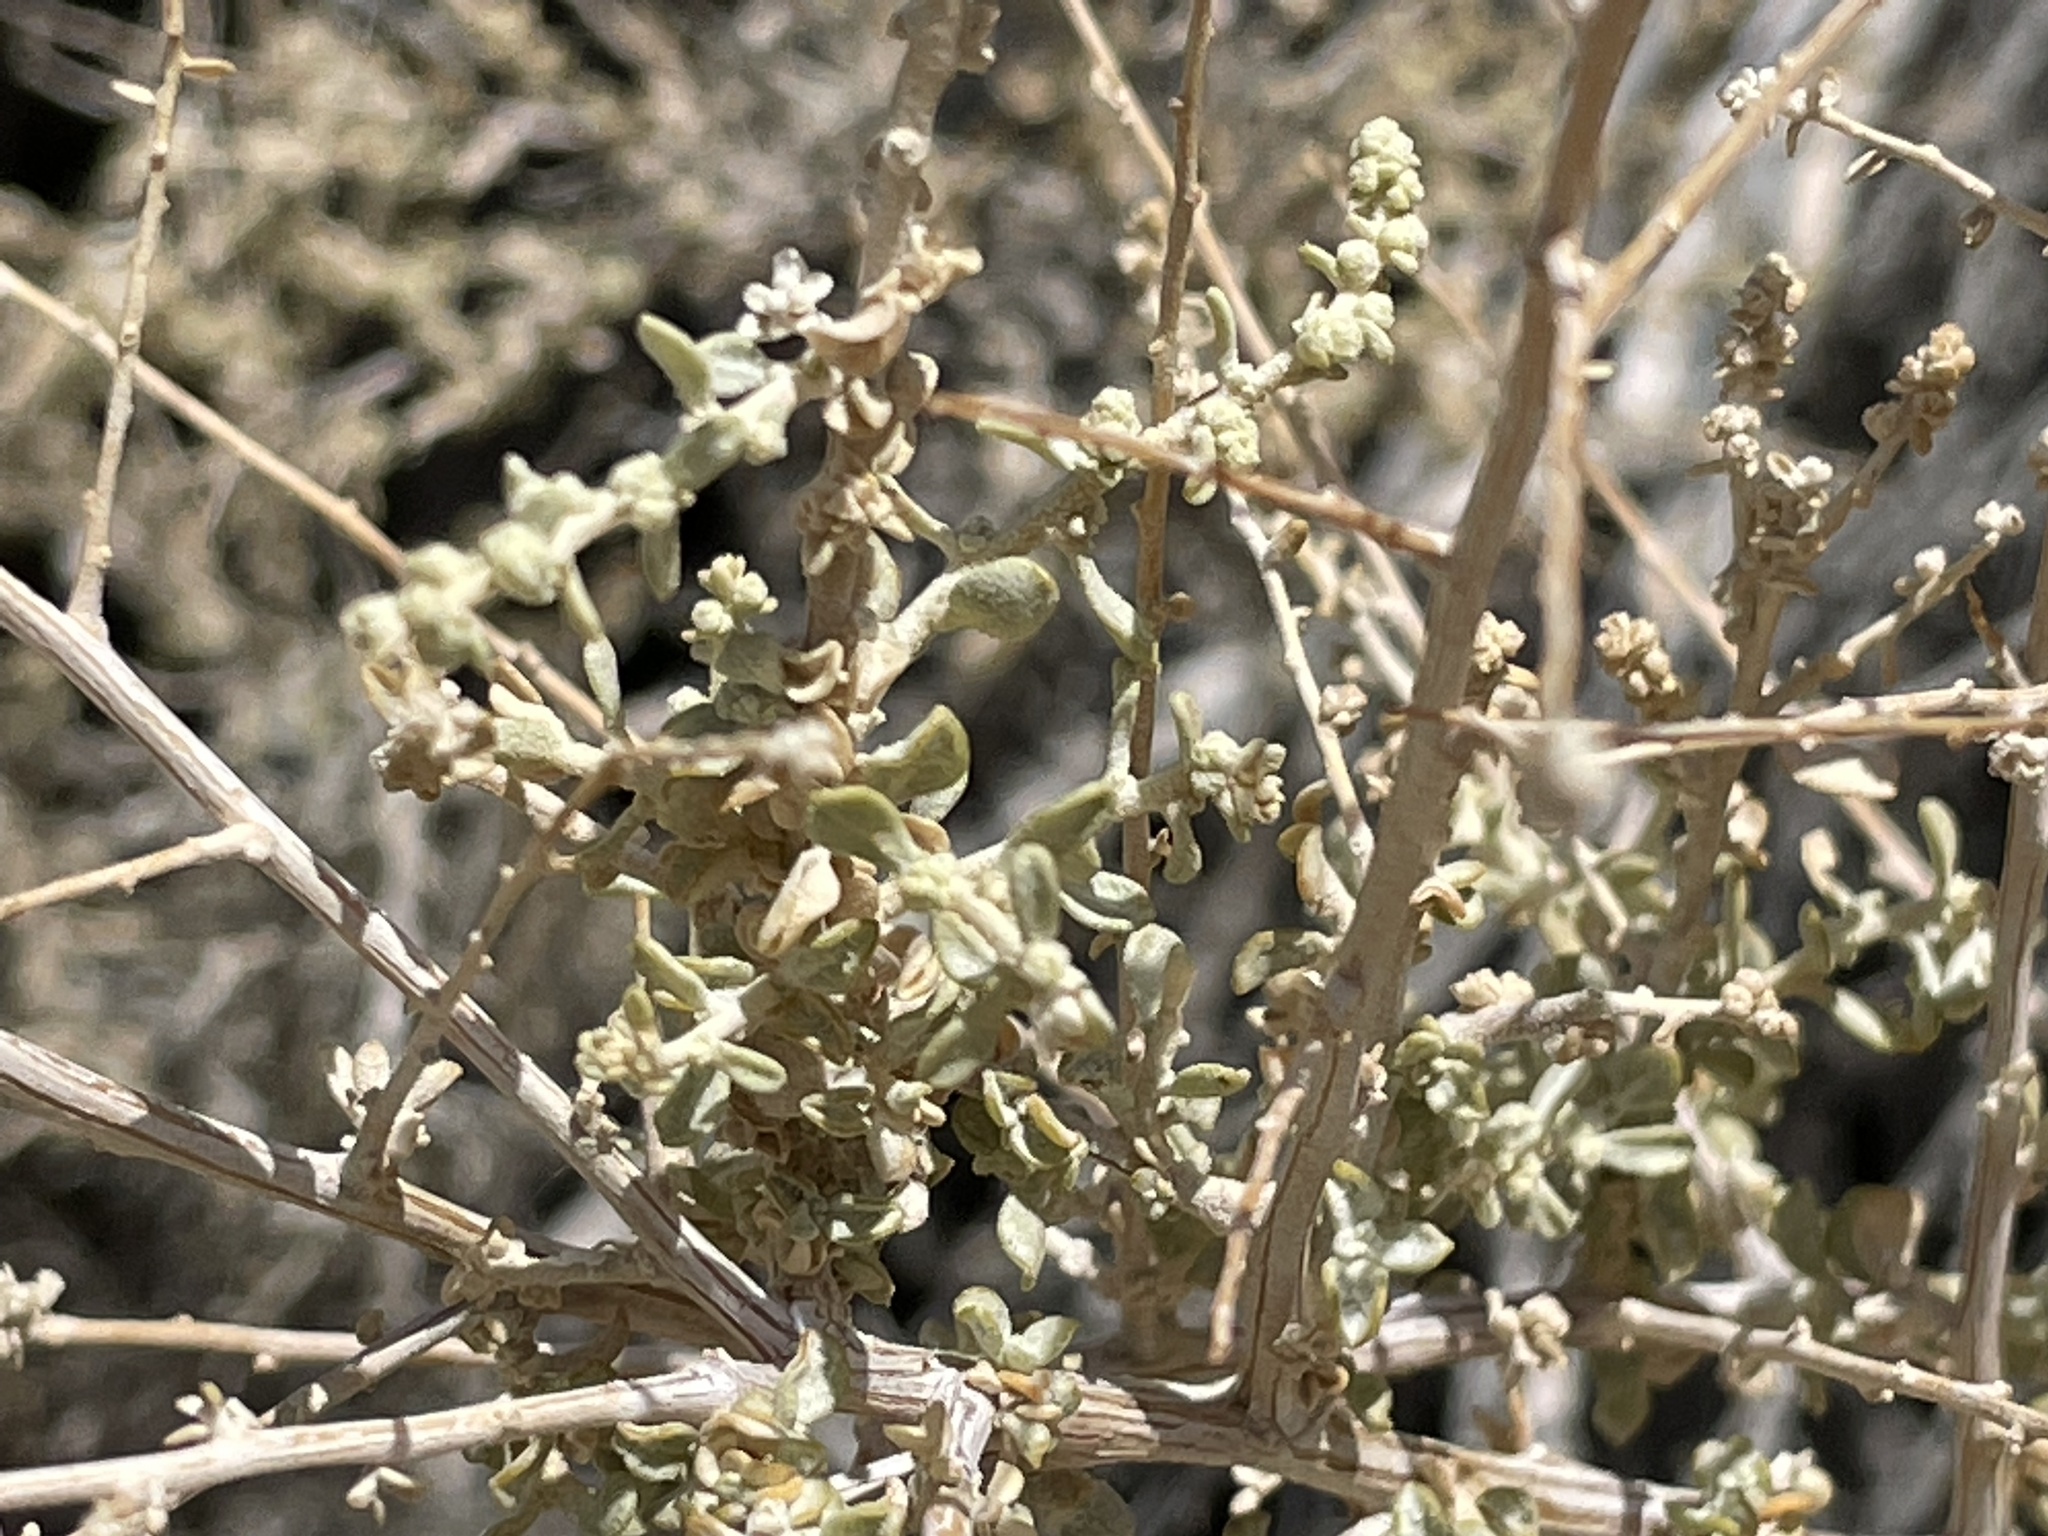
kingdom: Plantae
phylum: Tracheophyta
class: Magnoliopsida
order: Caryophyllales
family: Amaranthaceae
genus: Atriplex
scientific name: Atriplex polycarpa
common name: Desert saltbush
